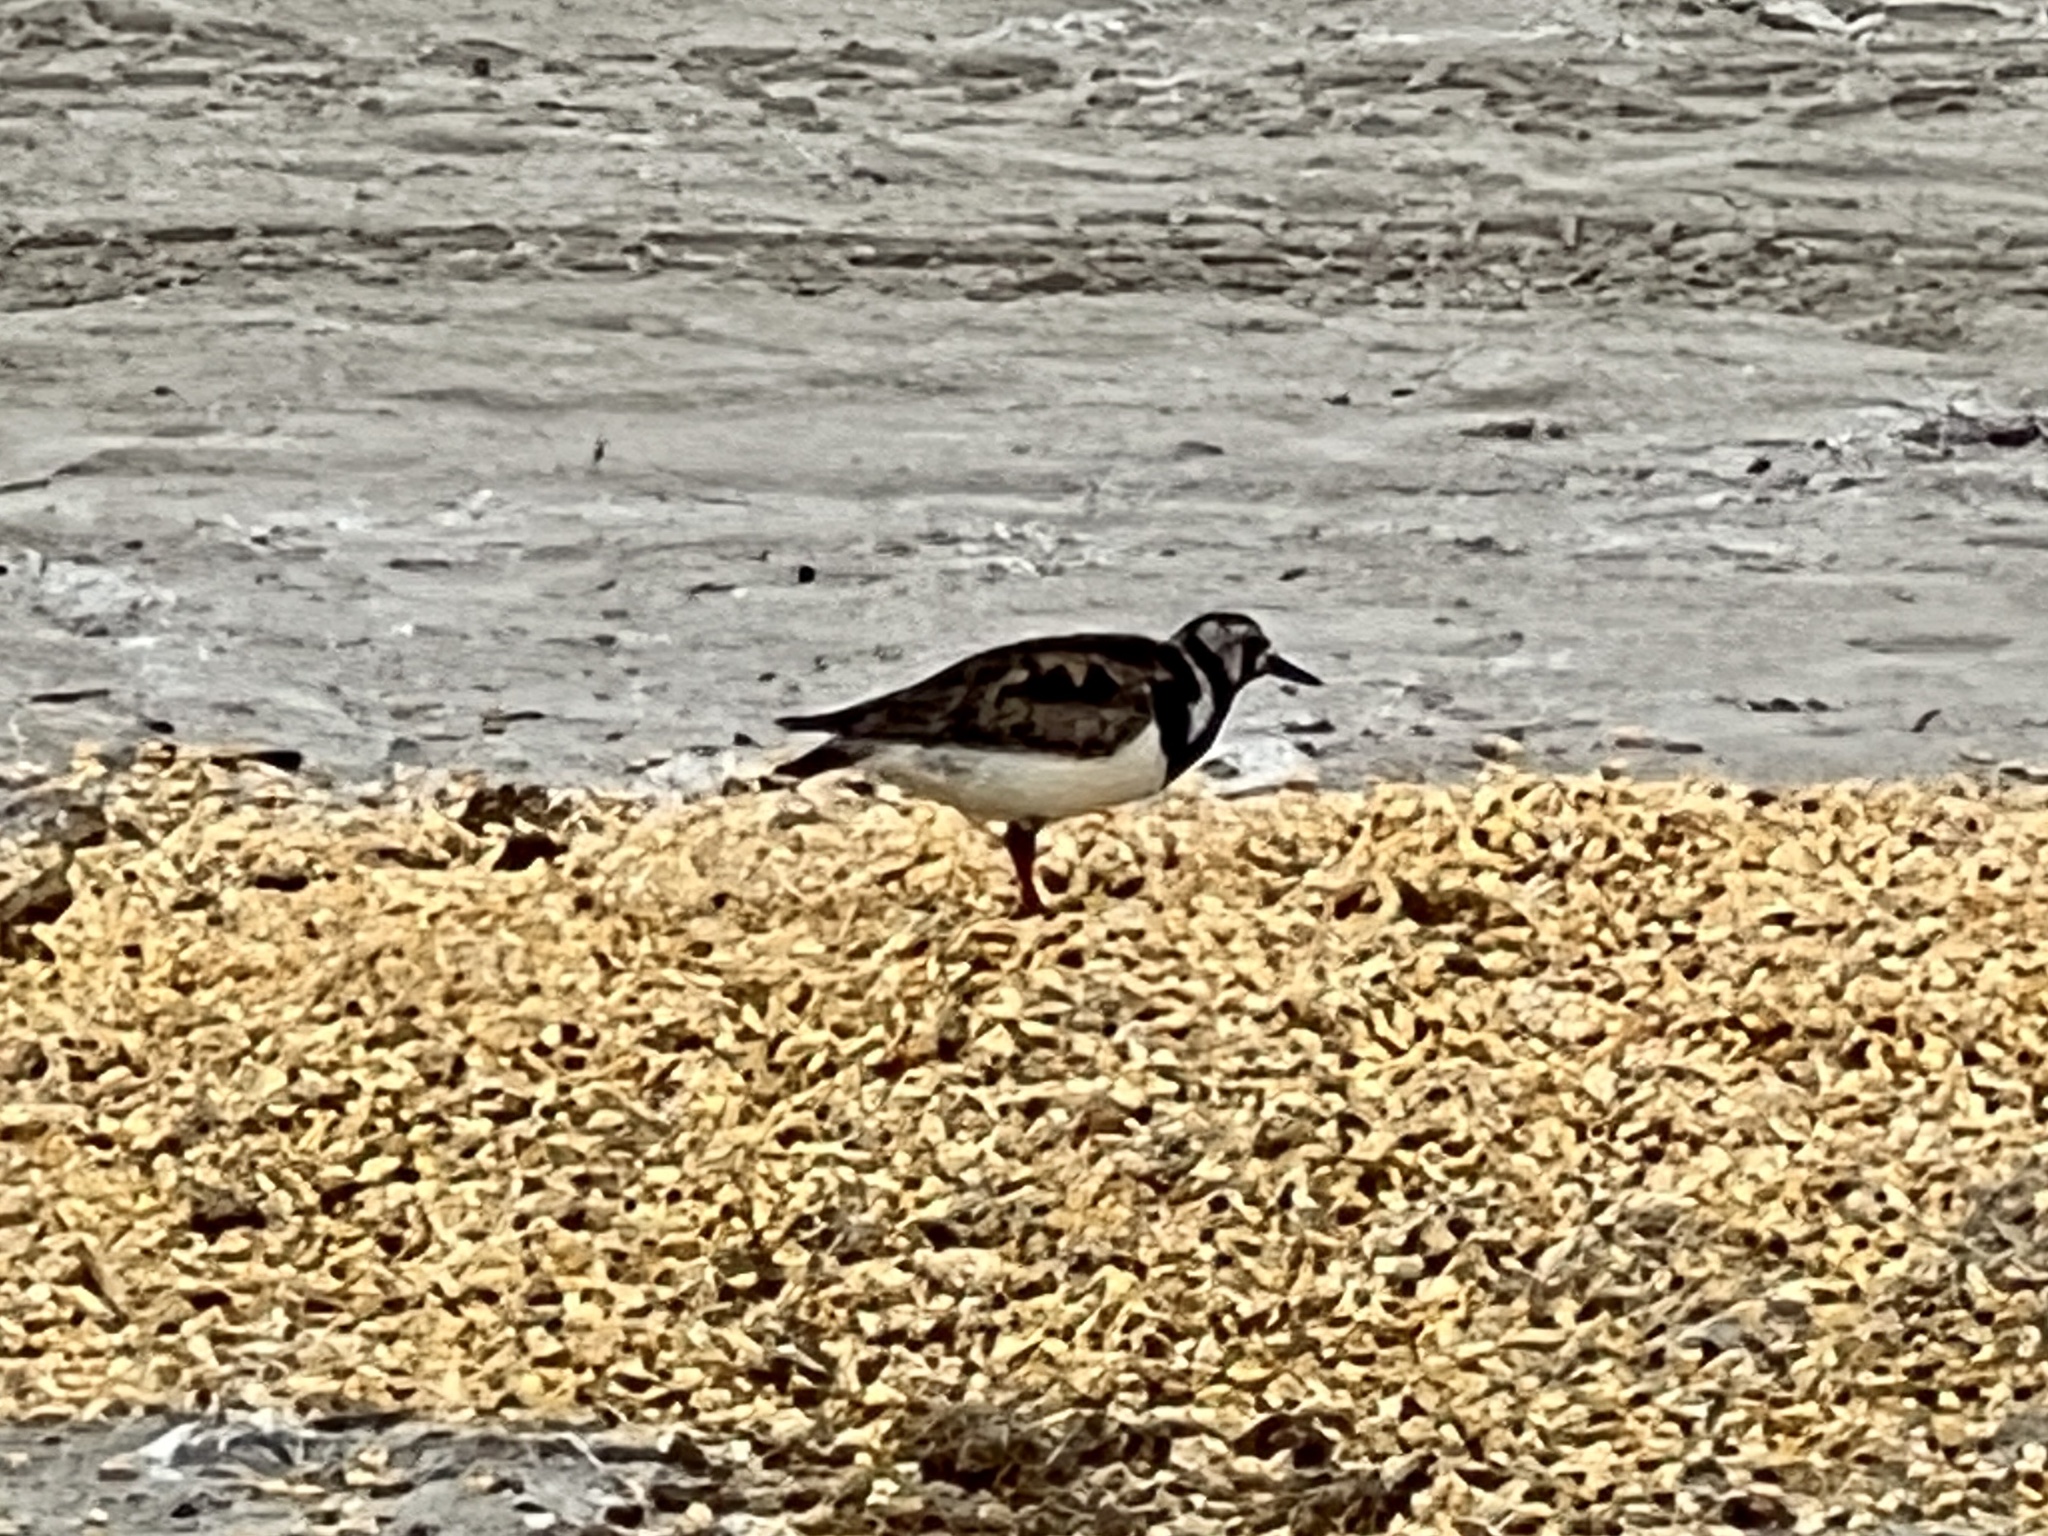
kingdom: Animalia
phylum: Chordata
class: Aves
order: Charadriiformes
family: Scolopacidae
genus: Arenaria
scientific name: Arenaria interpres
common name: Ruddy turnstone
